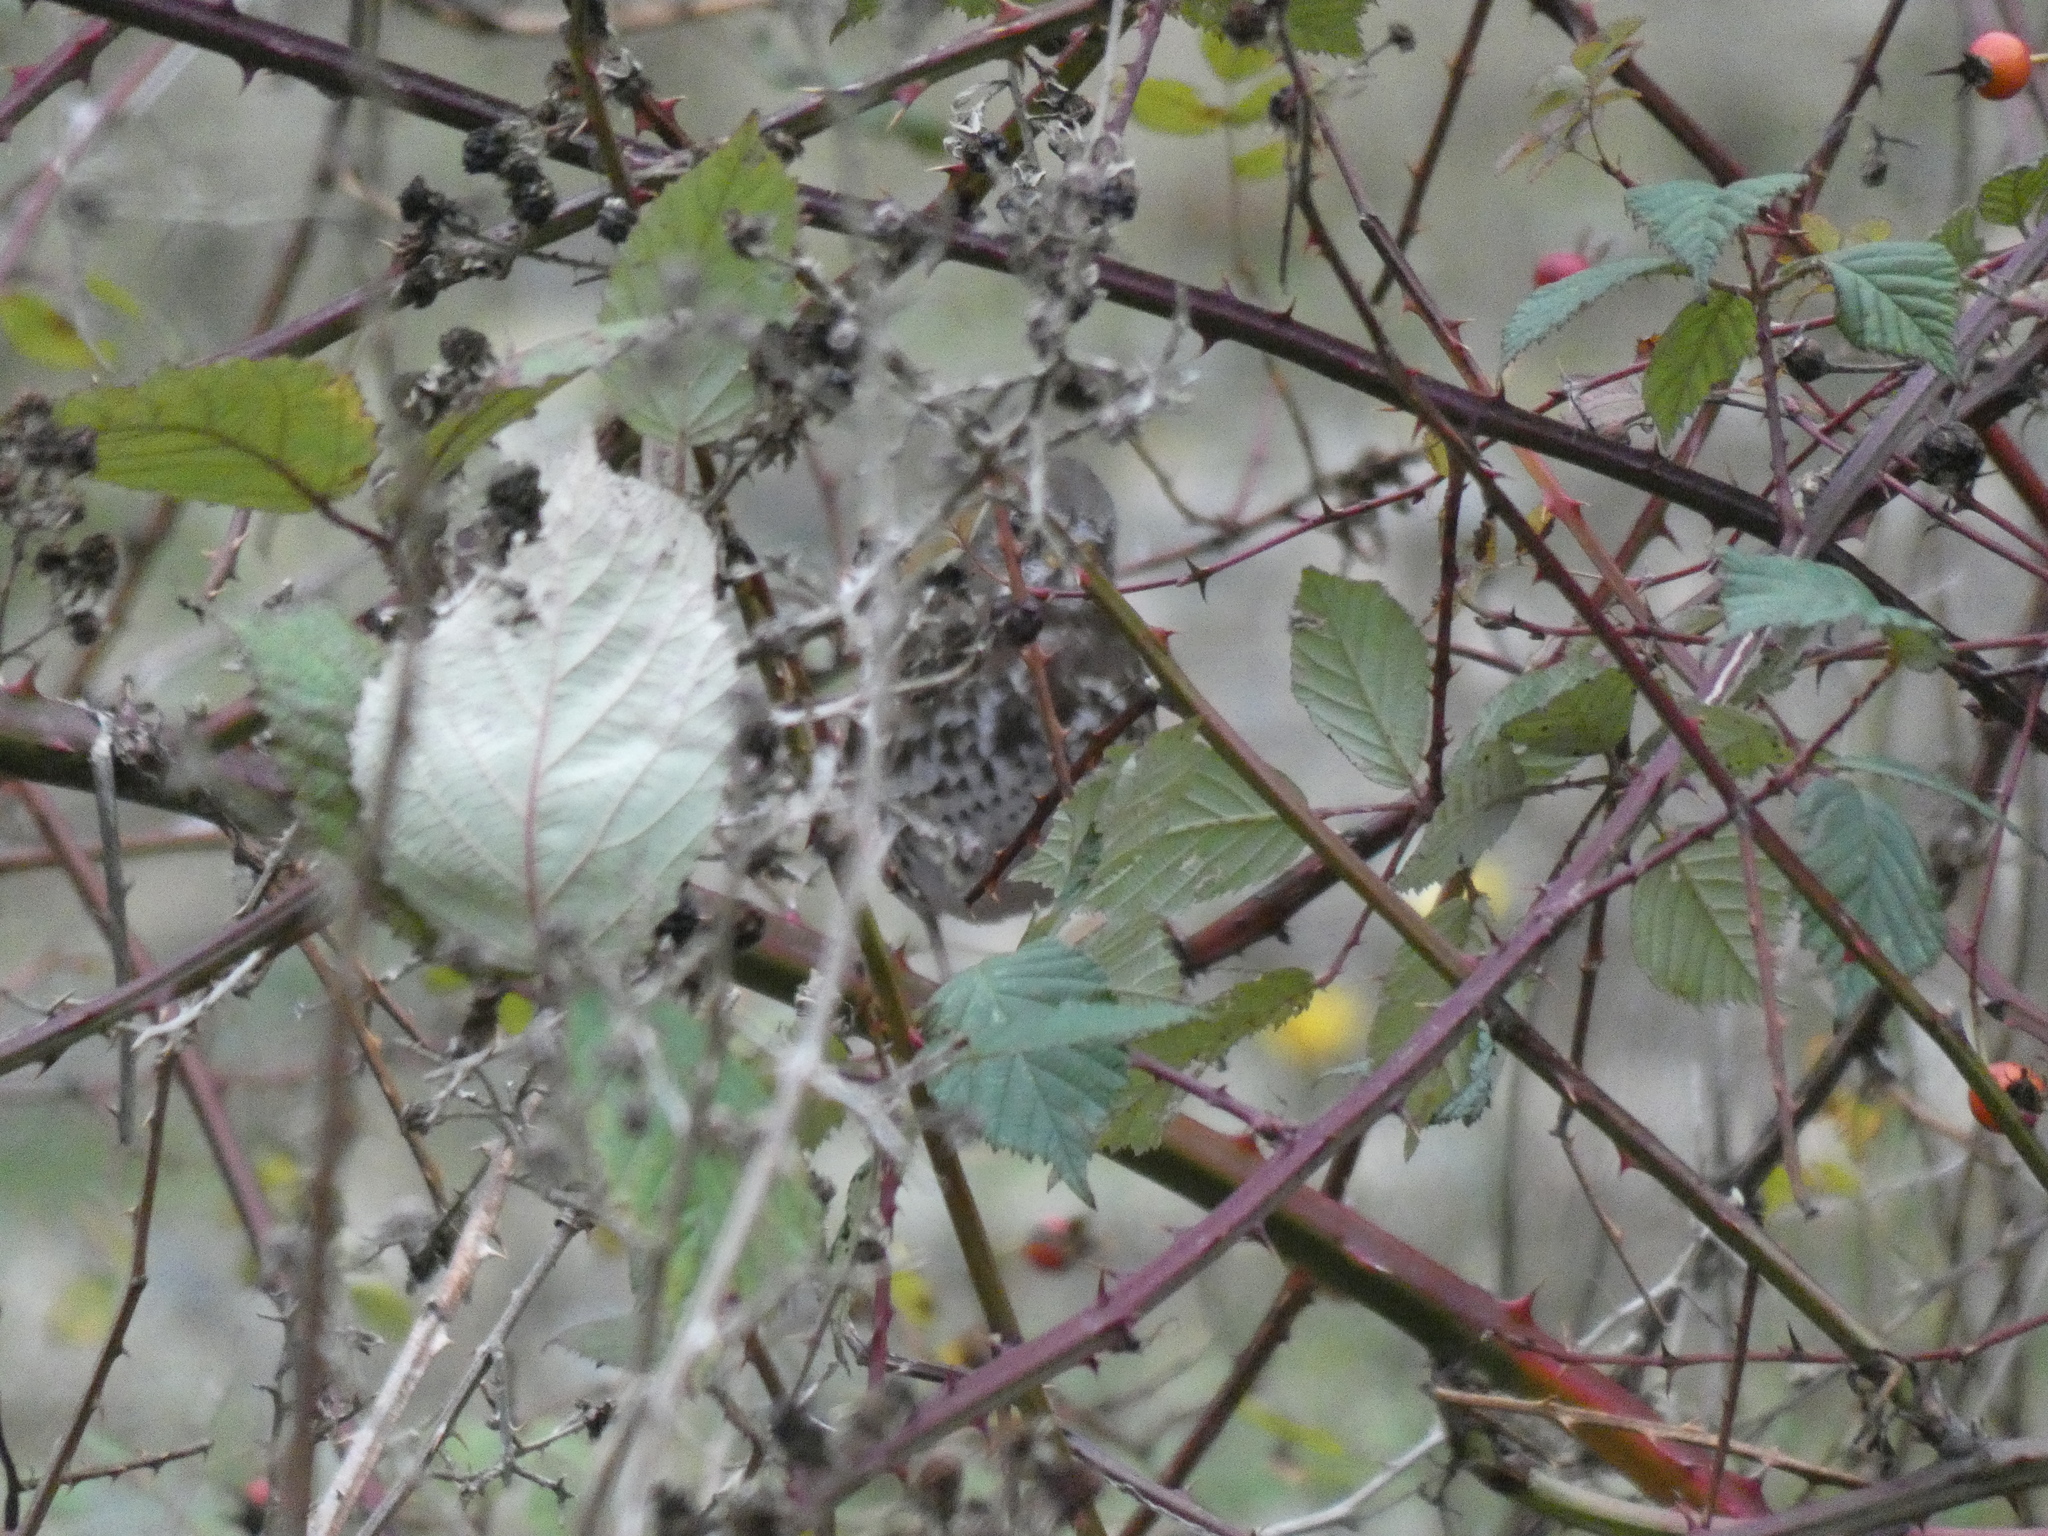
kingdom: Animalia
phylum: Chordata
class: Aves
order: Passeriformes
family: Passerellidae
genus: Passerella
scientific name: Passerella iliaca
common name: Fox sparrow
